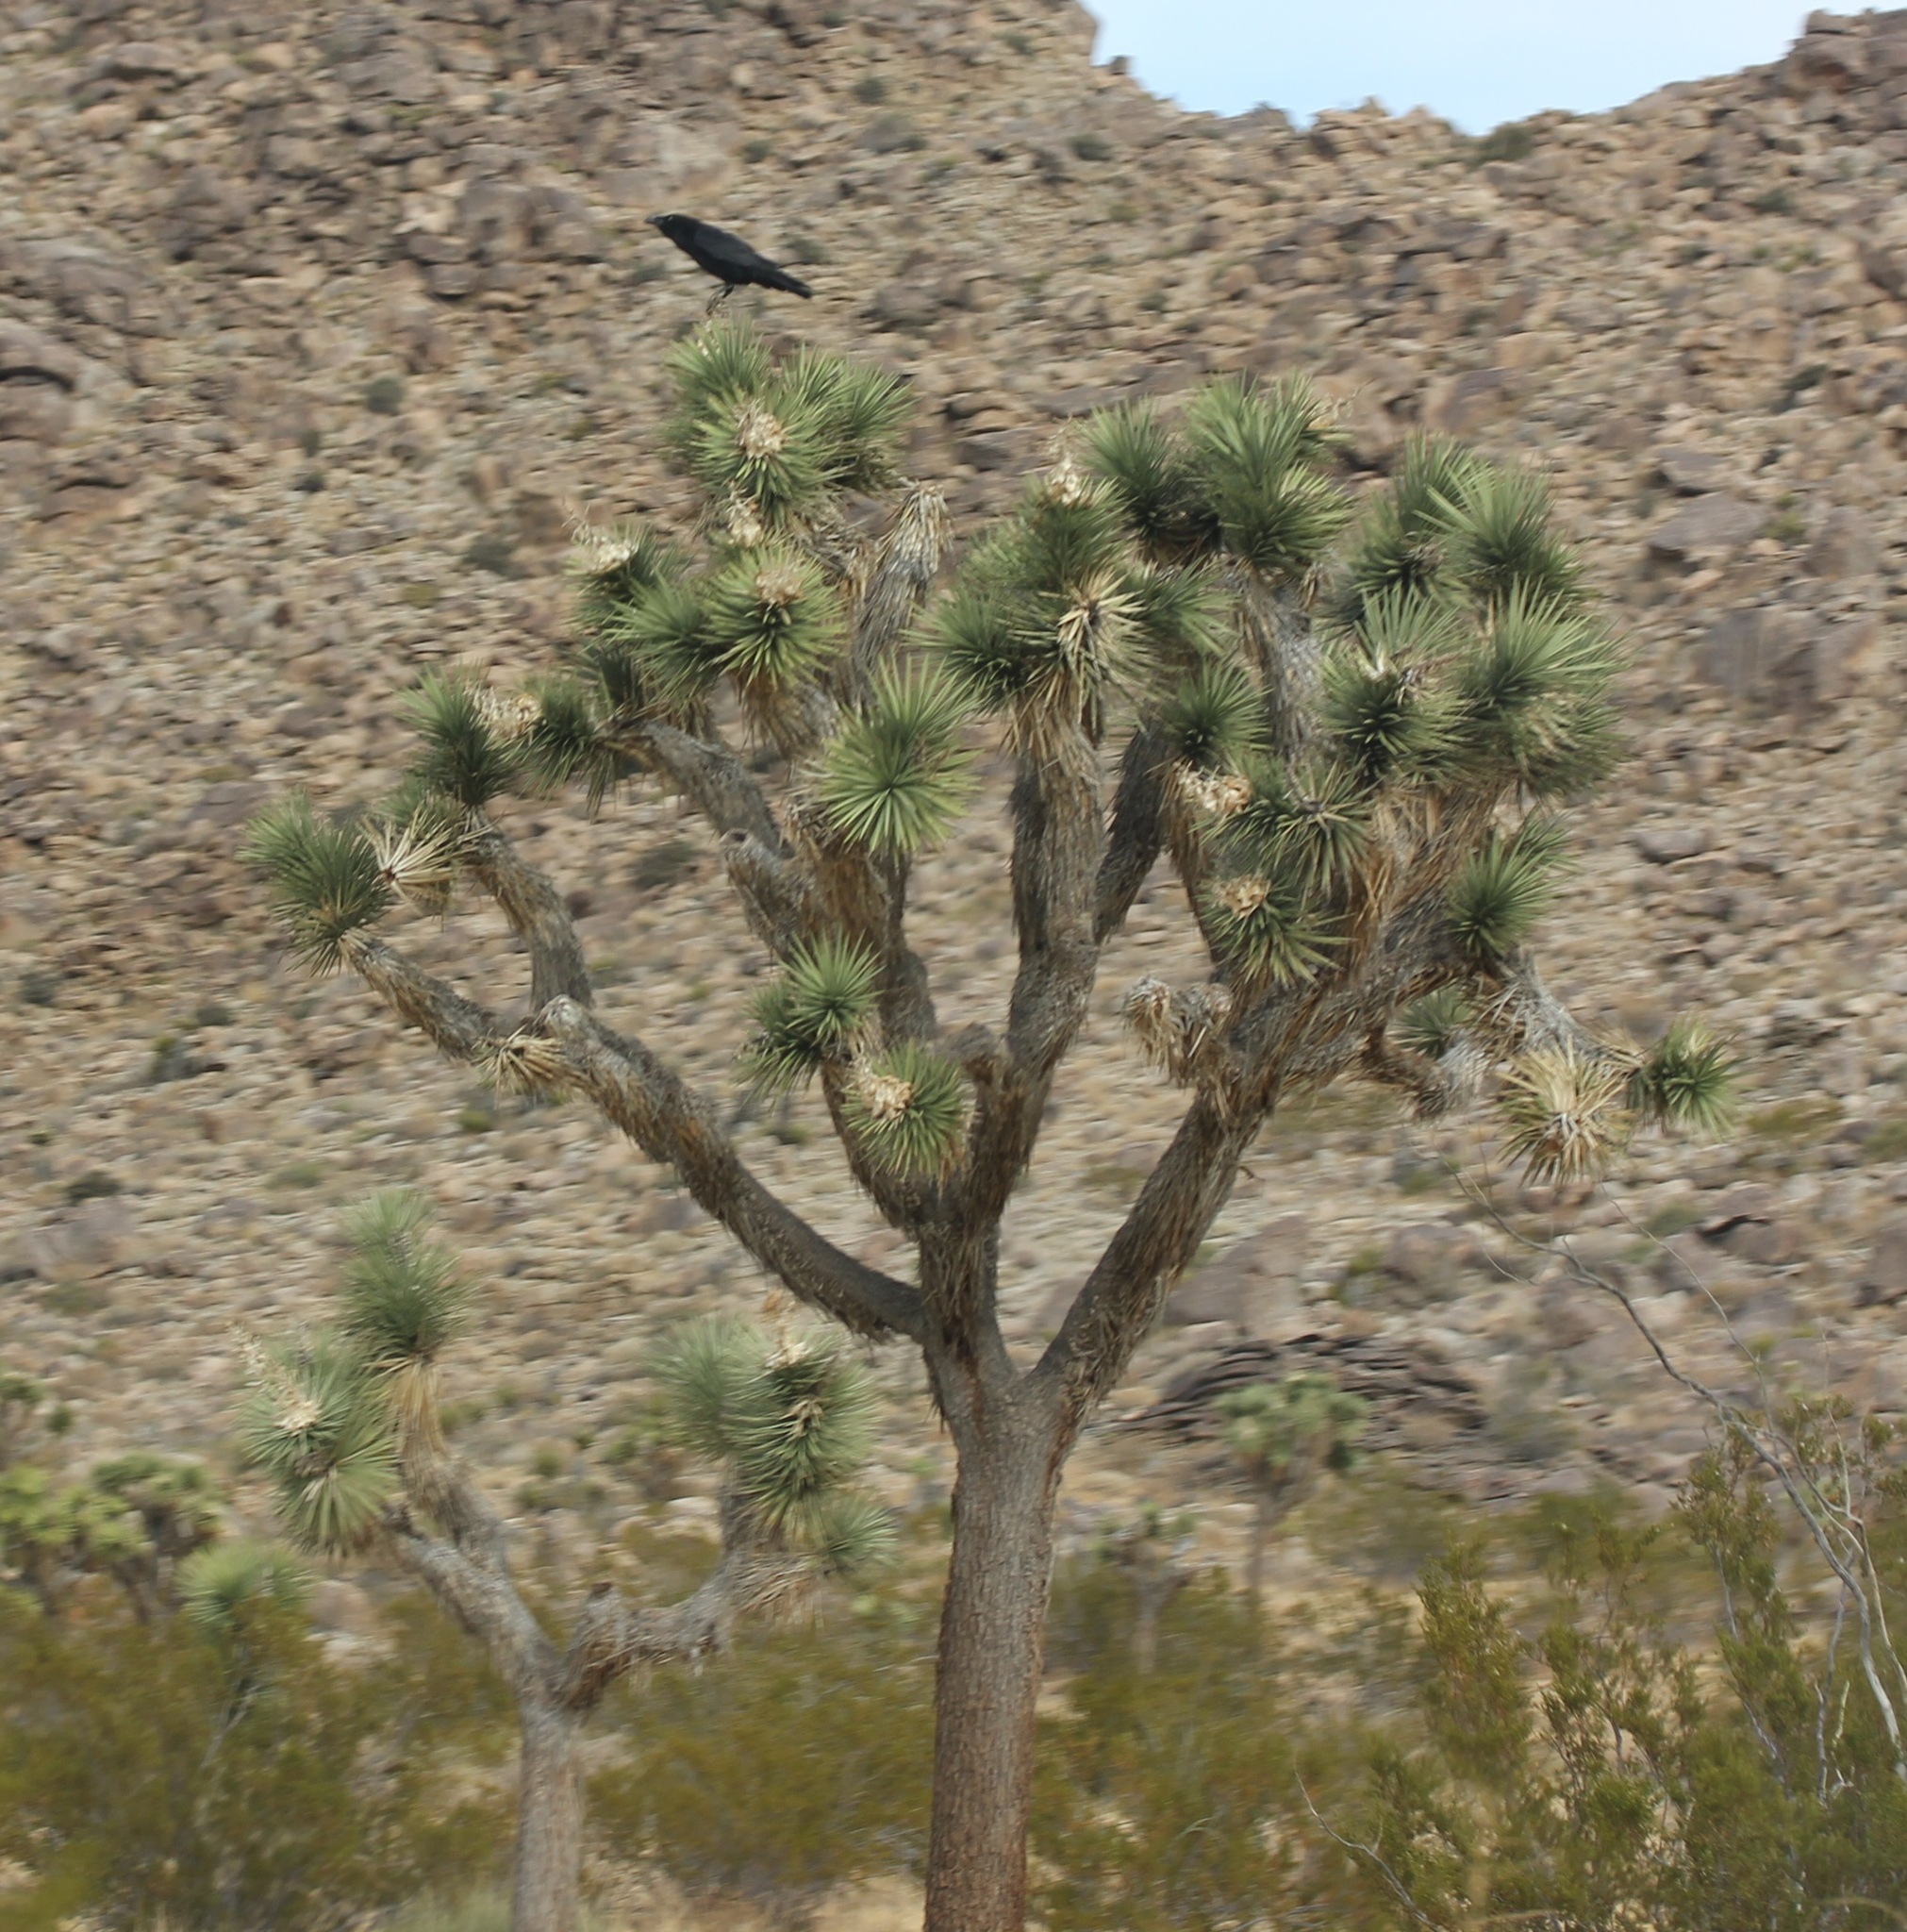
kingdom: Animalia
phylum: Chordata
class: Aves
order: Passeriformes
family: Corvidae
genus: Corvus
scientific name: Corvus corax
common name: Common raven
